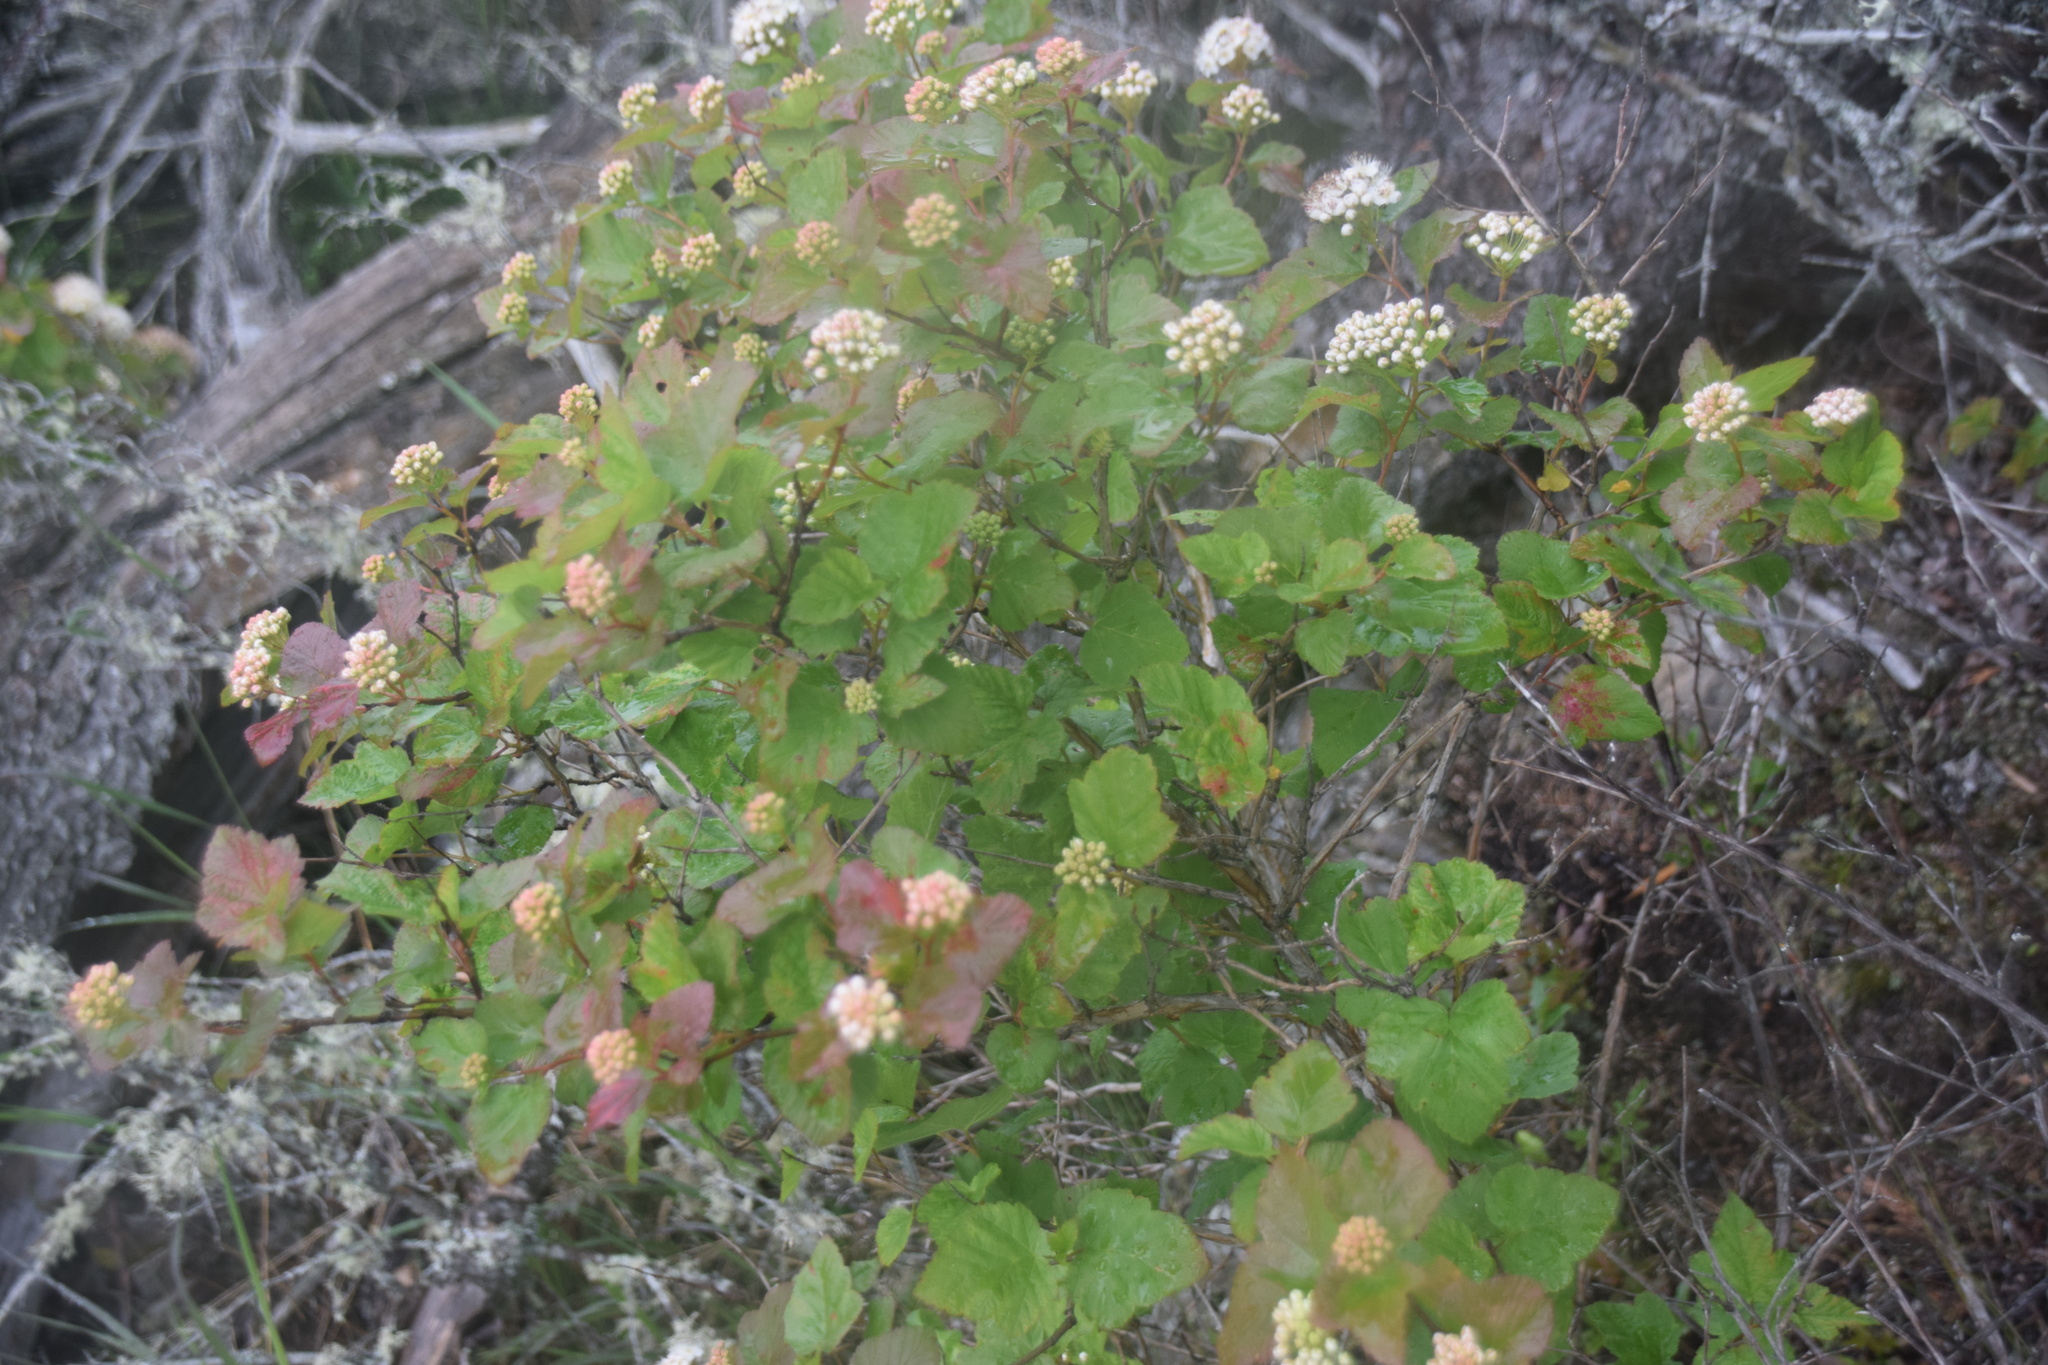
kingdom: Plantae
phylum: Tracheophyta
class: Magnoliopsida
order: Rosales
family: Rosaceae
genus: Physocarpus
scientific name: Physocarpus opulifolius
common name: Ninebark
